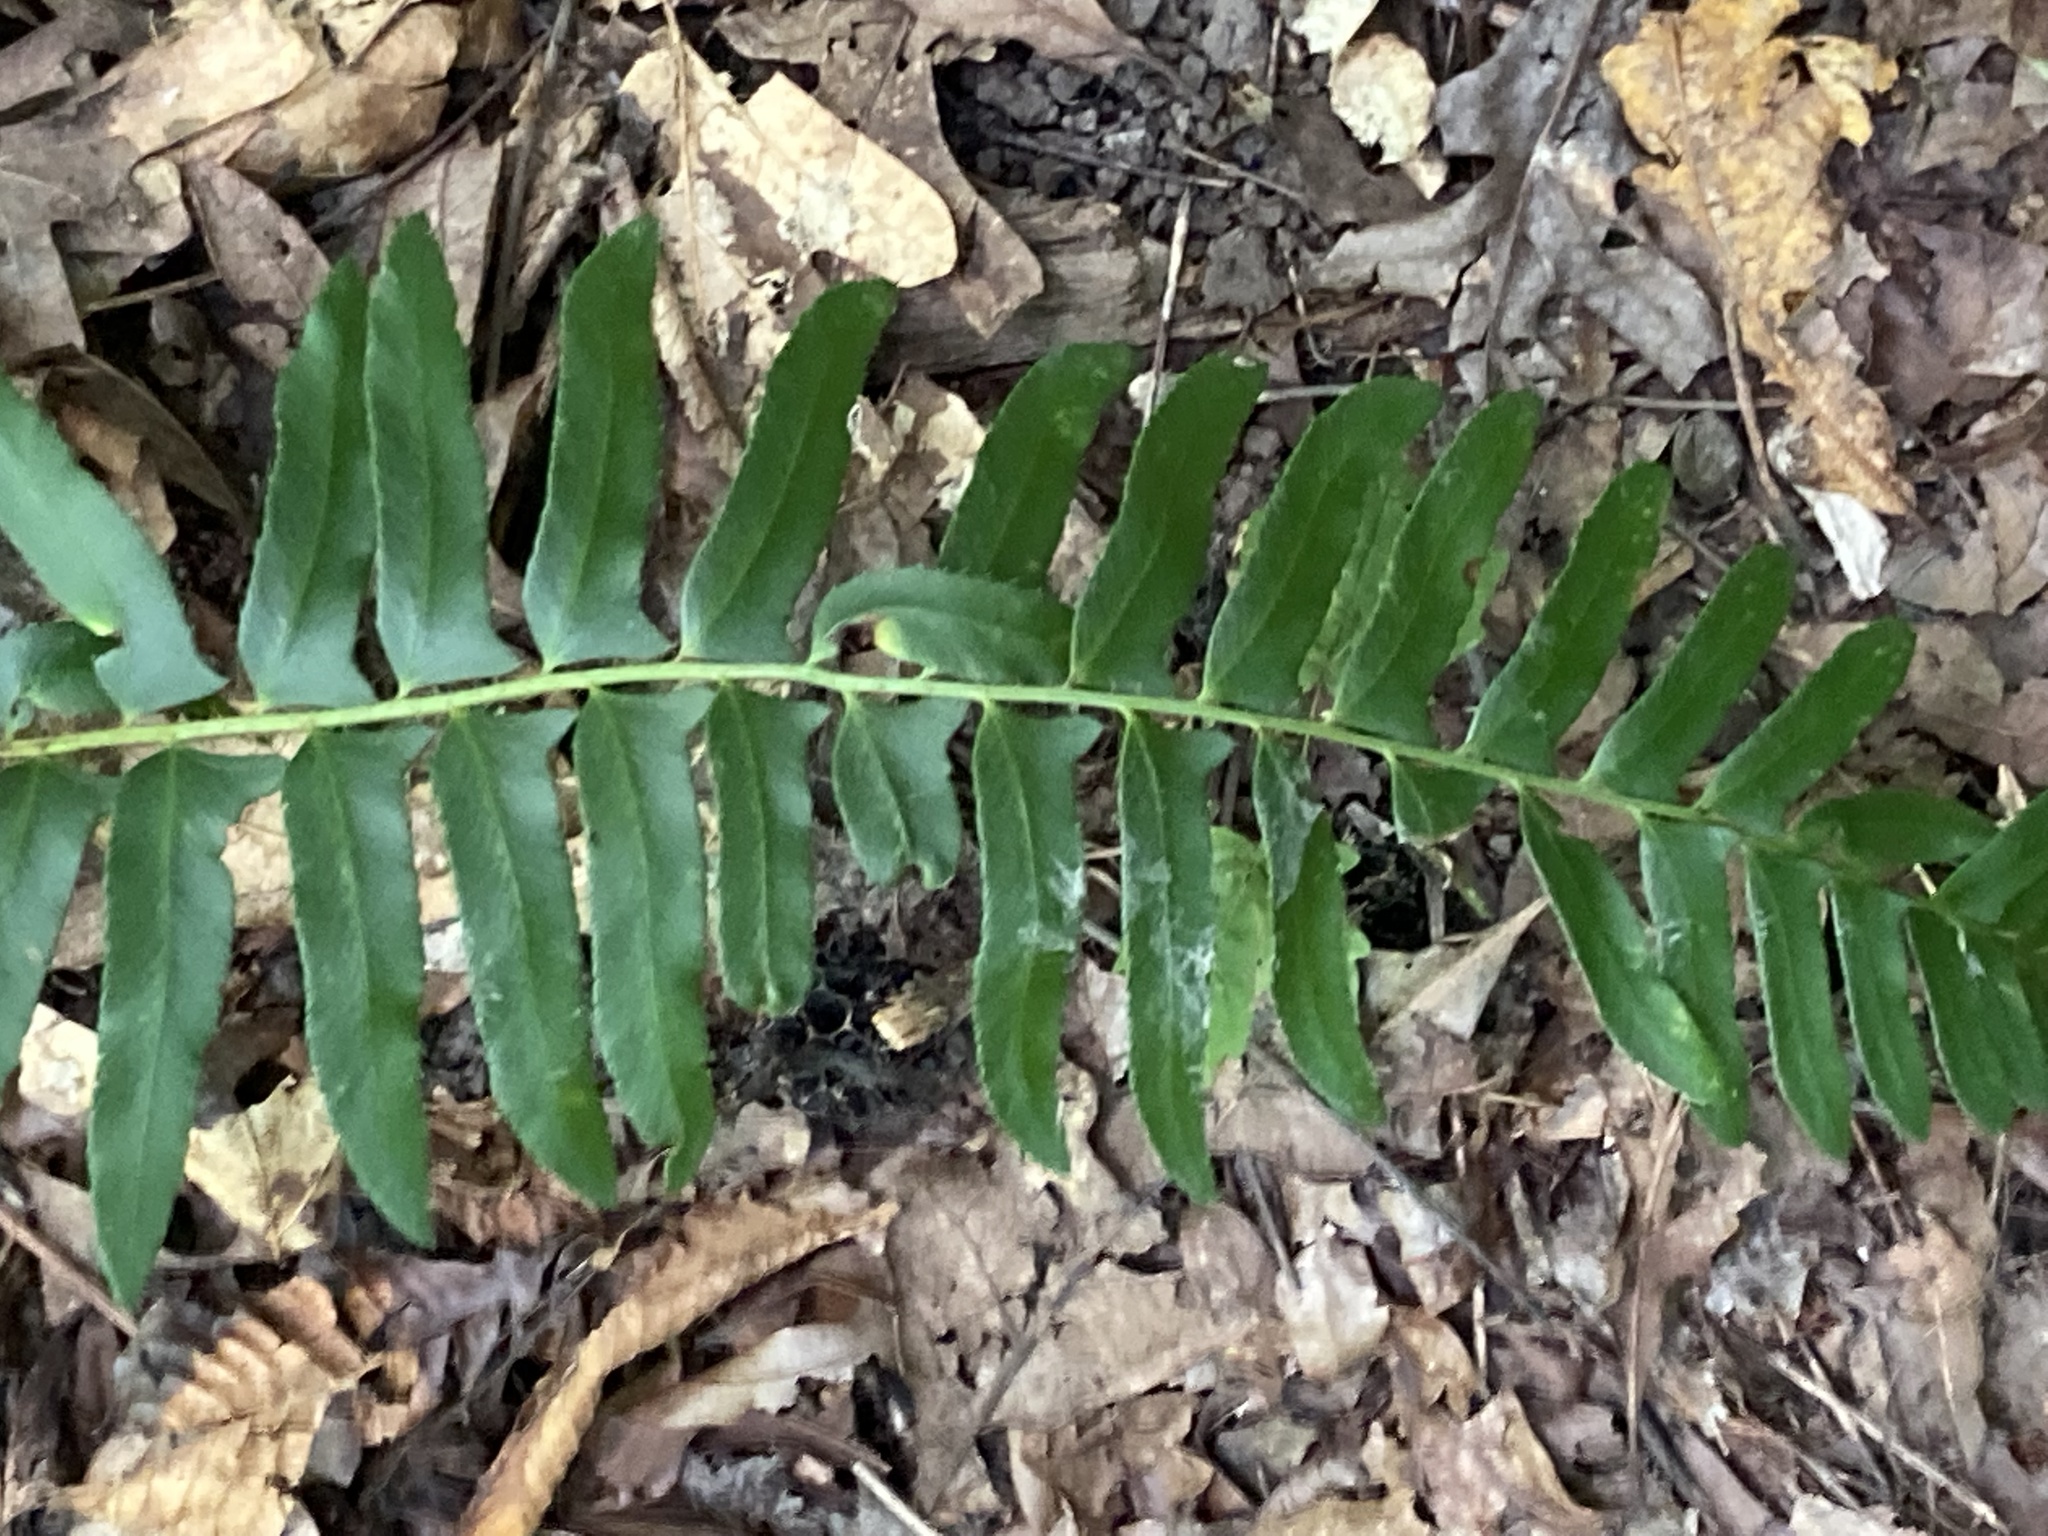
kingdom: Plantae
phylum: Tracheophyta
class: Polypodiopsida
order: Polypodiales
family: Dryopteridaceae
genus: Polystichum
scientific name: Polystichum acrostichoides
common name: Christmas fern
